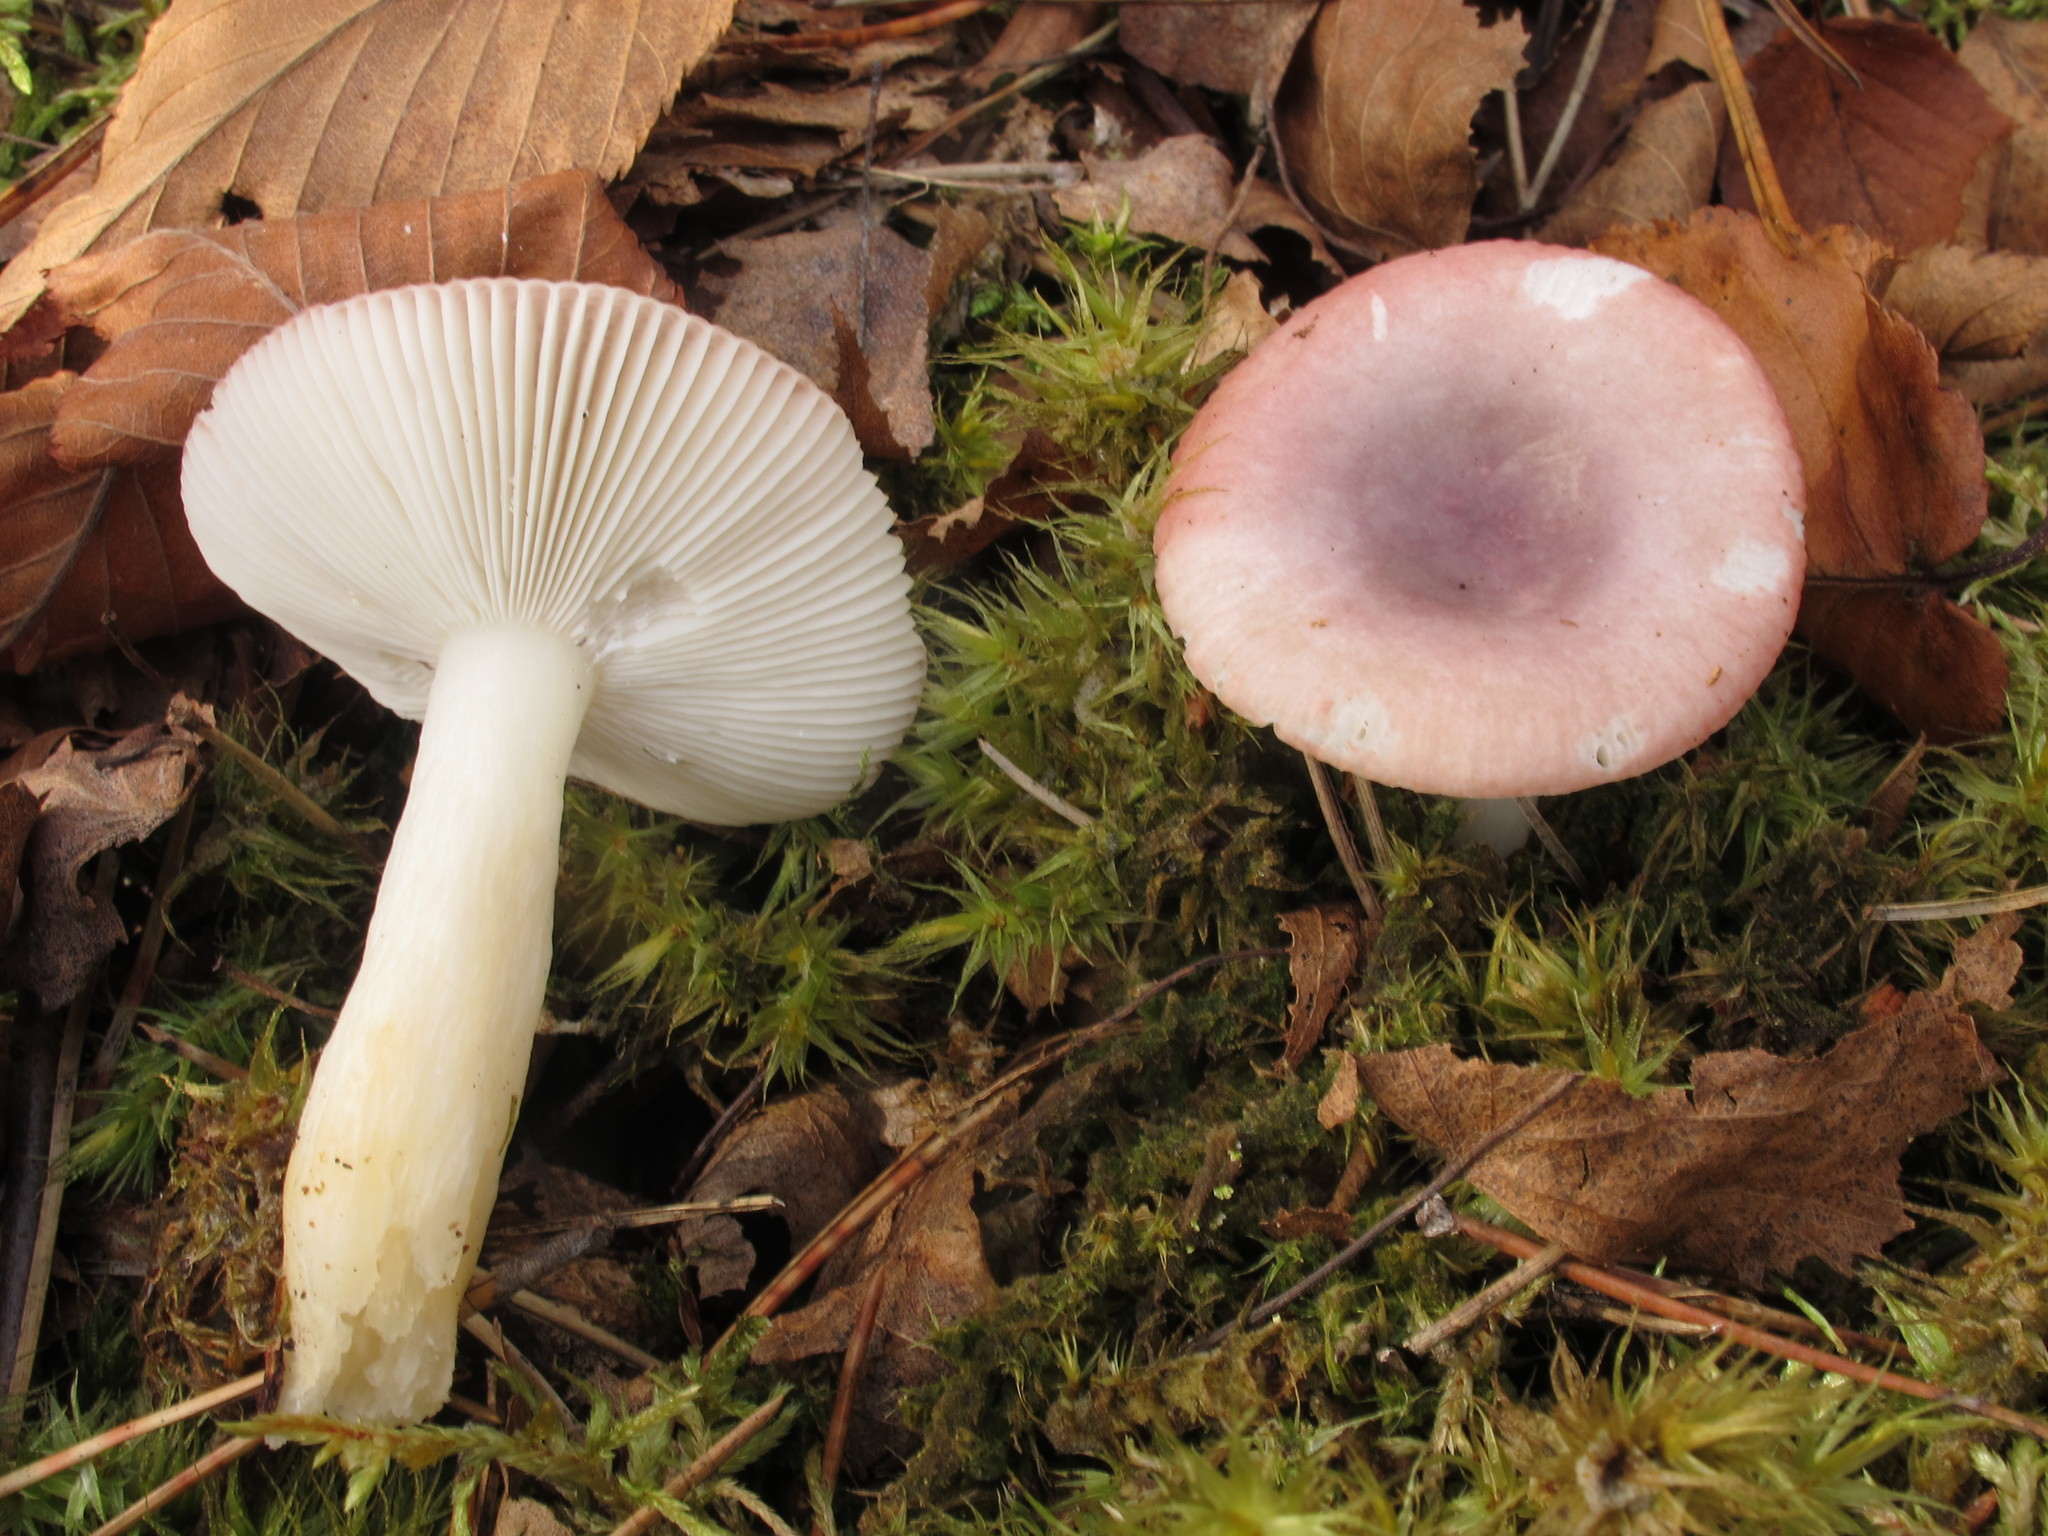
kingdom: Fungi
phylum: Basidiomycota
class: Agaricomycetes
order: Russulales
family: Russulaceae
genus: Russula
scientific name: Russula fragilis
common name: Fragile brittlegill
